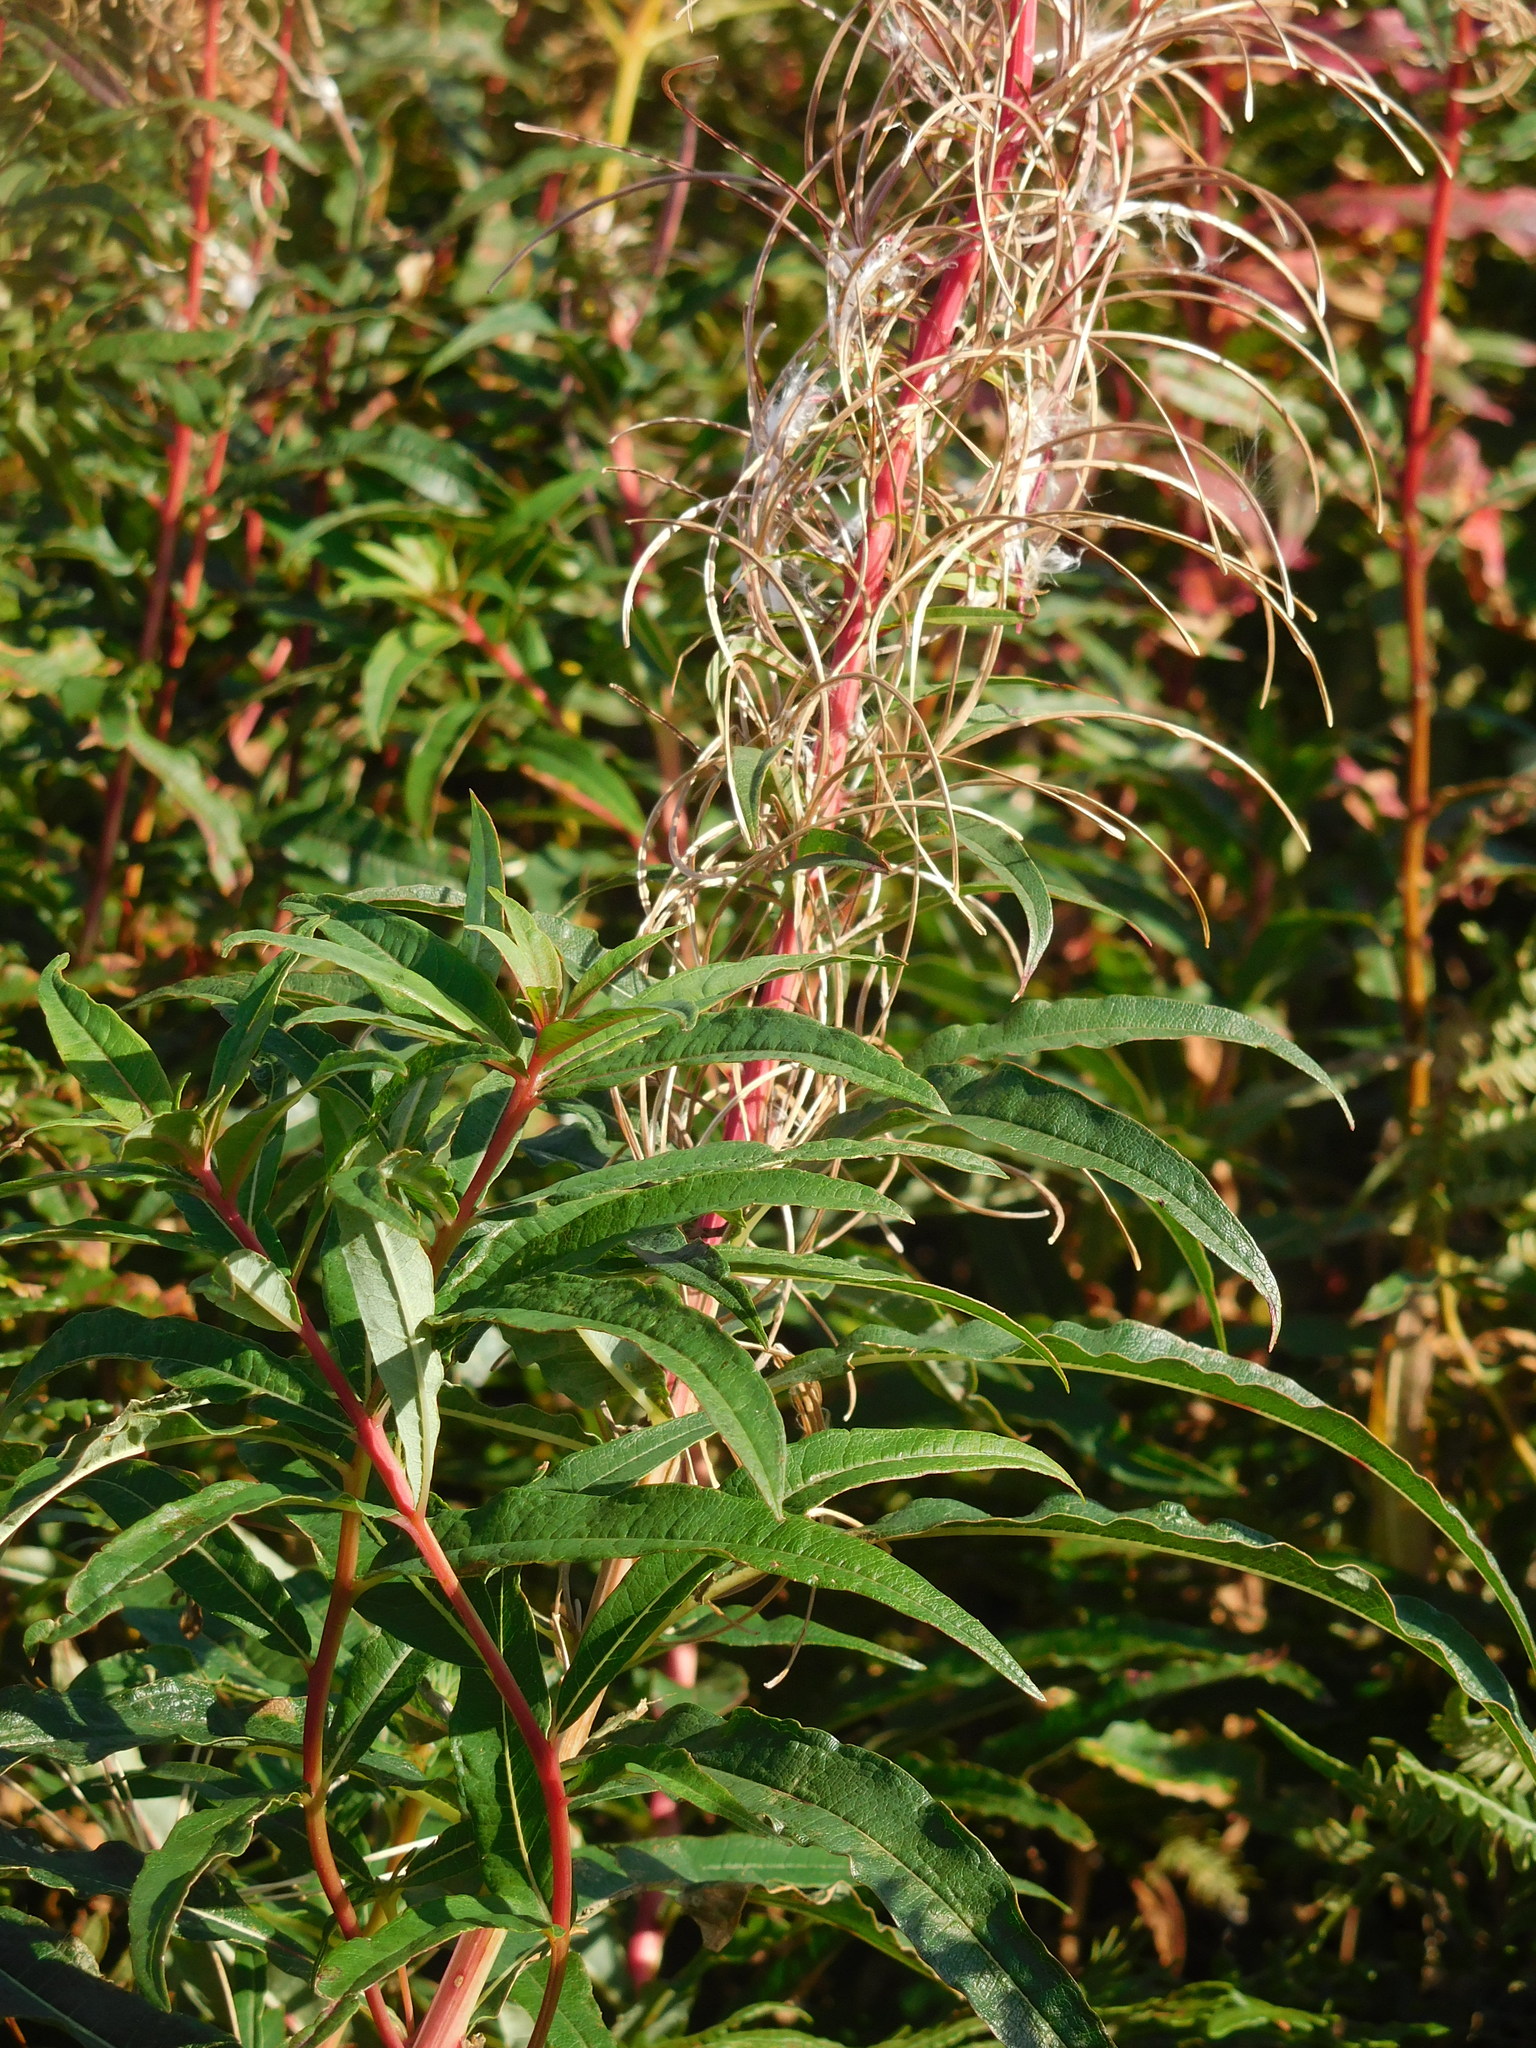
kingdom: Plantae
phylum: Tracheophyta
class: Magnoliopsida
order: Myrtales
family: Onagraceae
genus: Chamaenerion
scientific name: Chamaenerion angustifolium
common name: Fireweed
